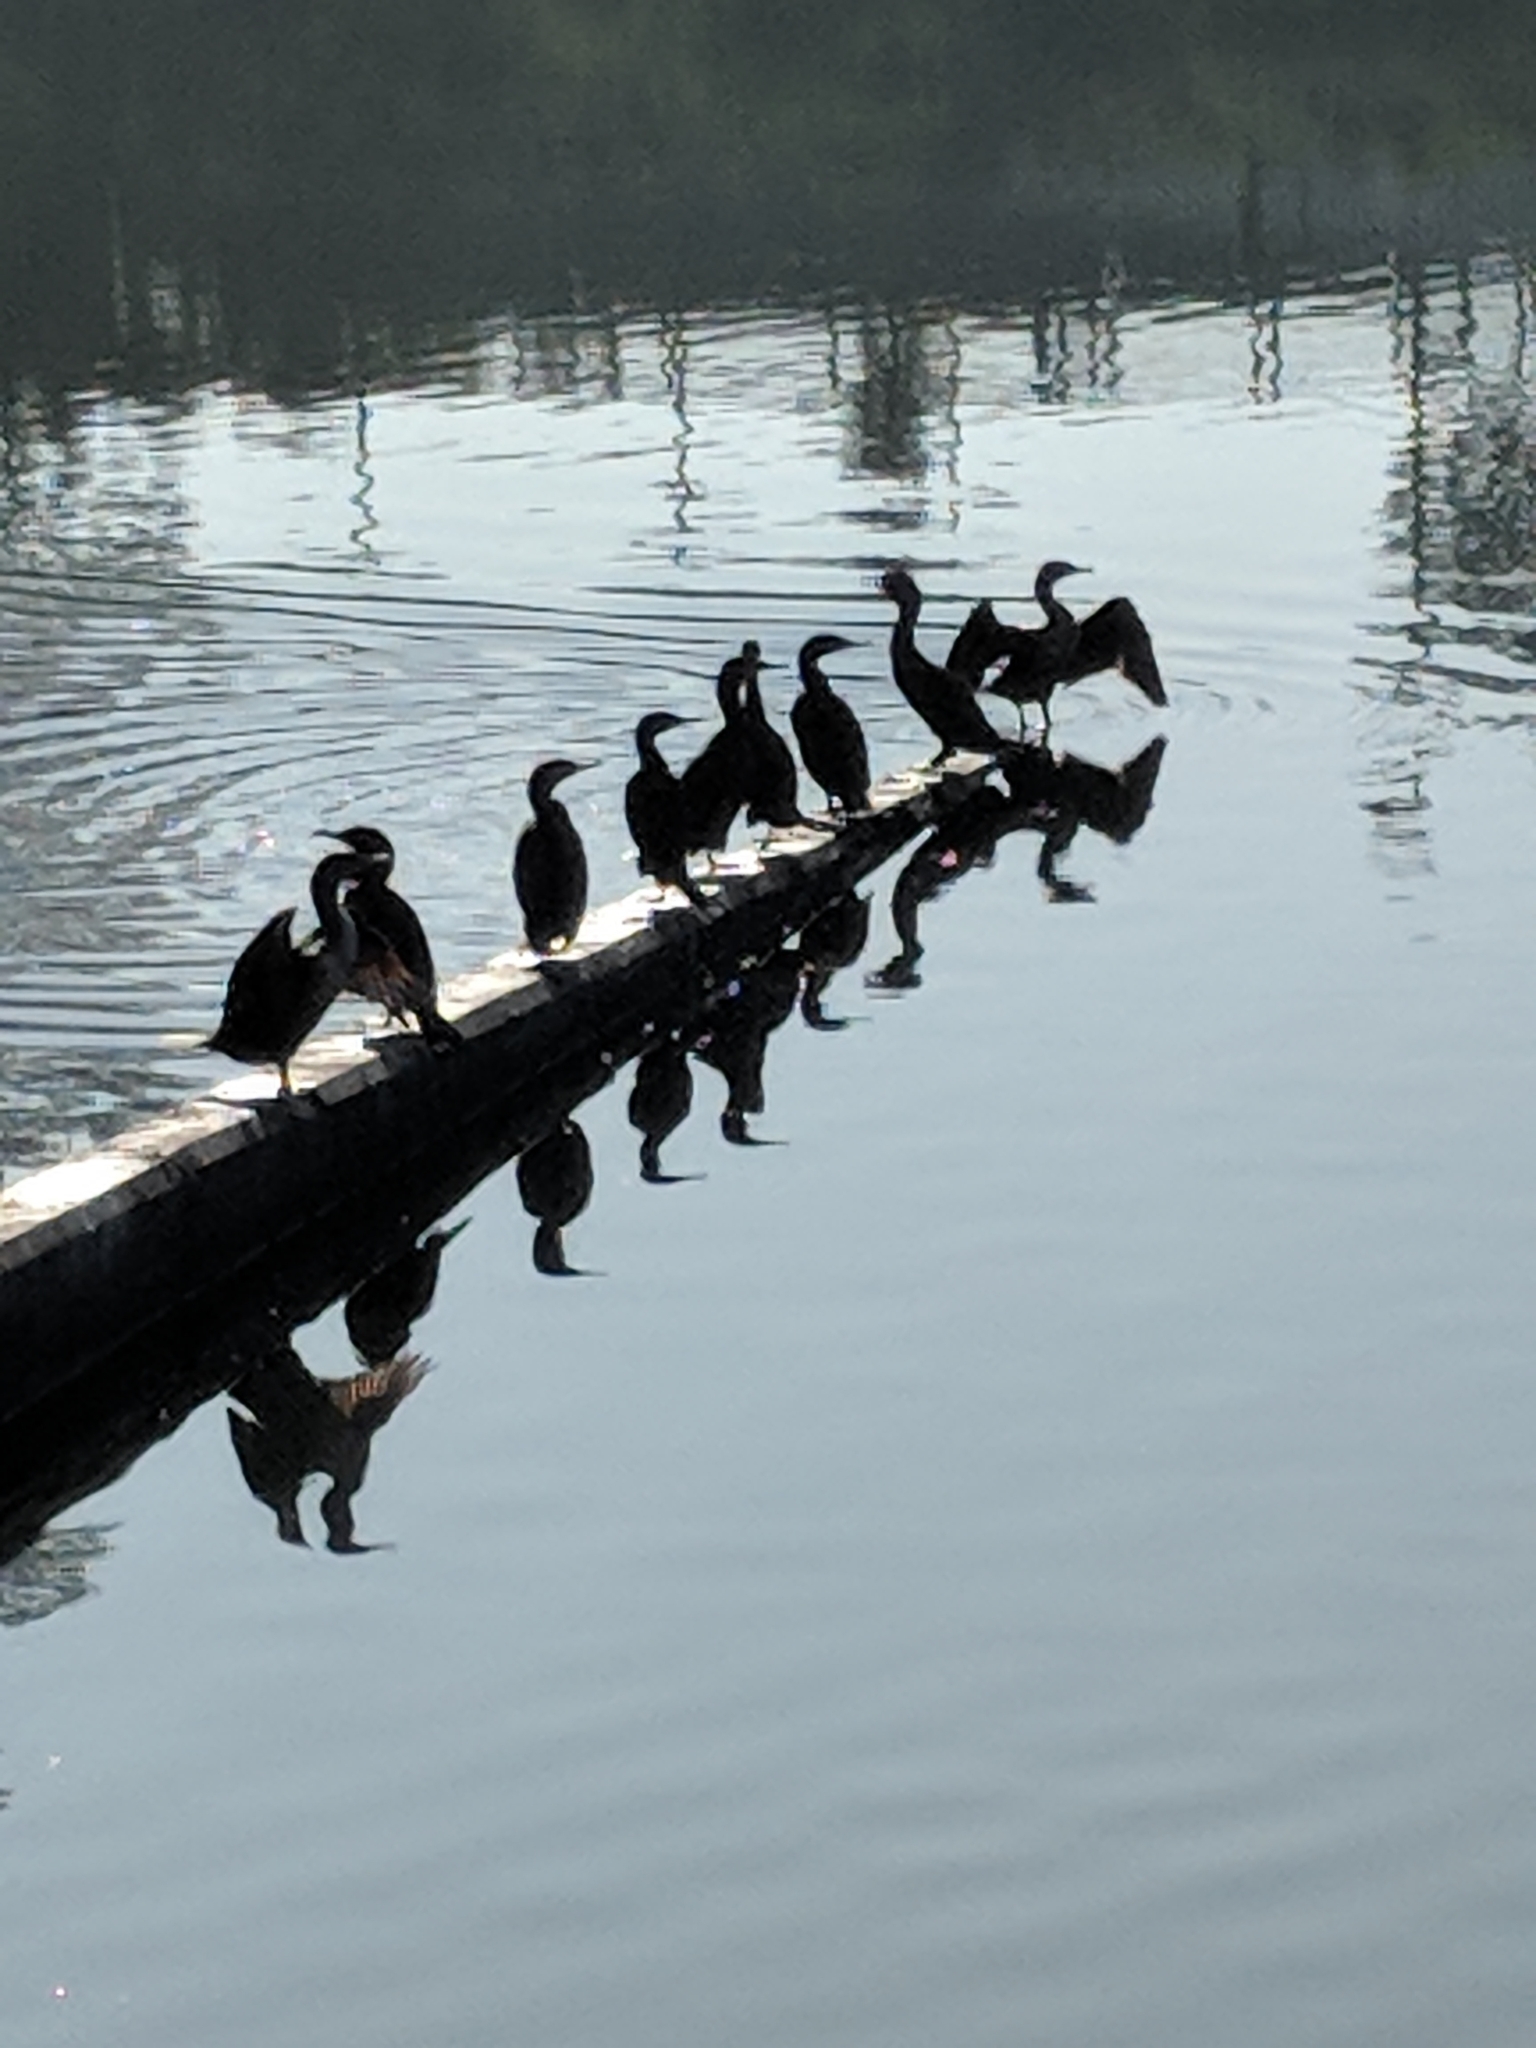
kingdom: Animalia
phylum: Chordata
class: Aves
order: Suliformes
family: Phalacrocoracidae
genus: Phalacrocorax
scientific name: Phalacrocorax auritus
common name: Double-crested cormorant
